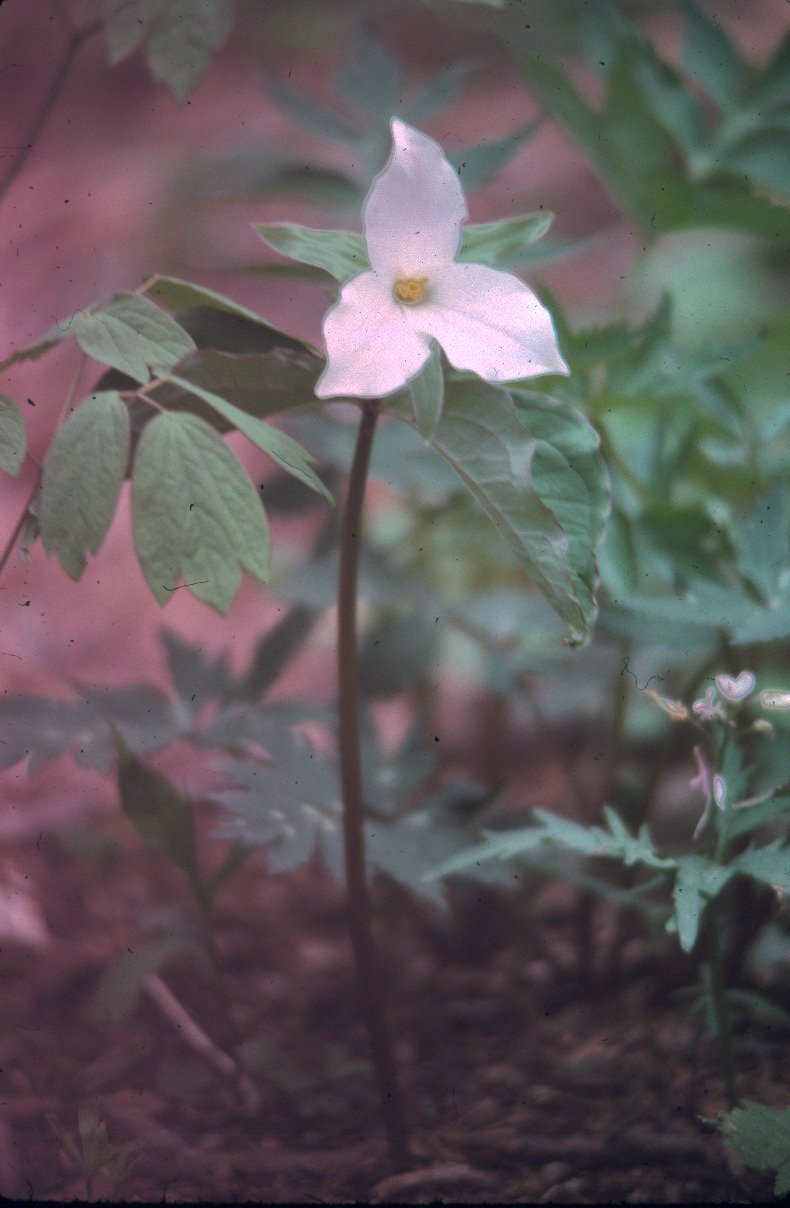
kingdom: Plantae
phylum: Tracheophyta
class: Liliopsida
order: Liliales
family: Melanthiaceae
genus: Trillium
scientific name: Trillium grandiflorum
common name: Great white trillium
